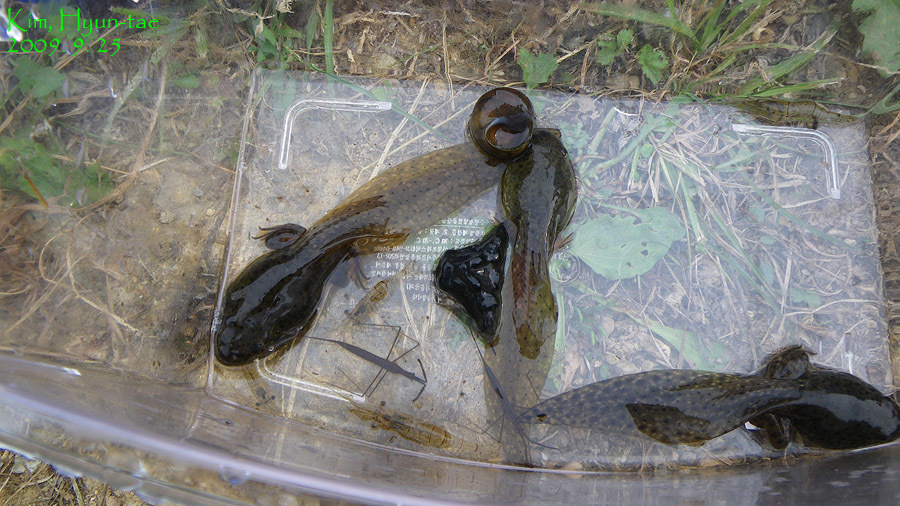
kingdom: Animalia
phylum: Chordata
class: Amphibia
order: Anura
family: Ranidae
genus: Lithobates
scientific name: Lithobates catesbeianus
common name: American bullfrog
